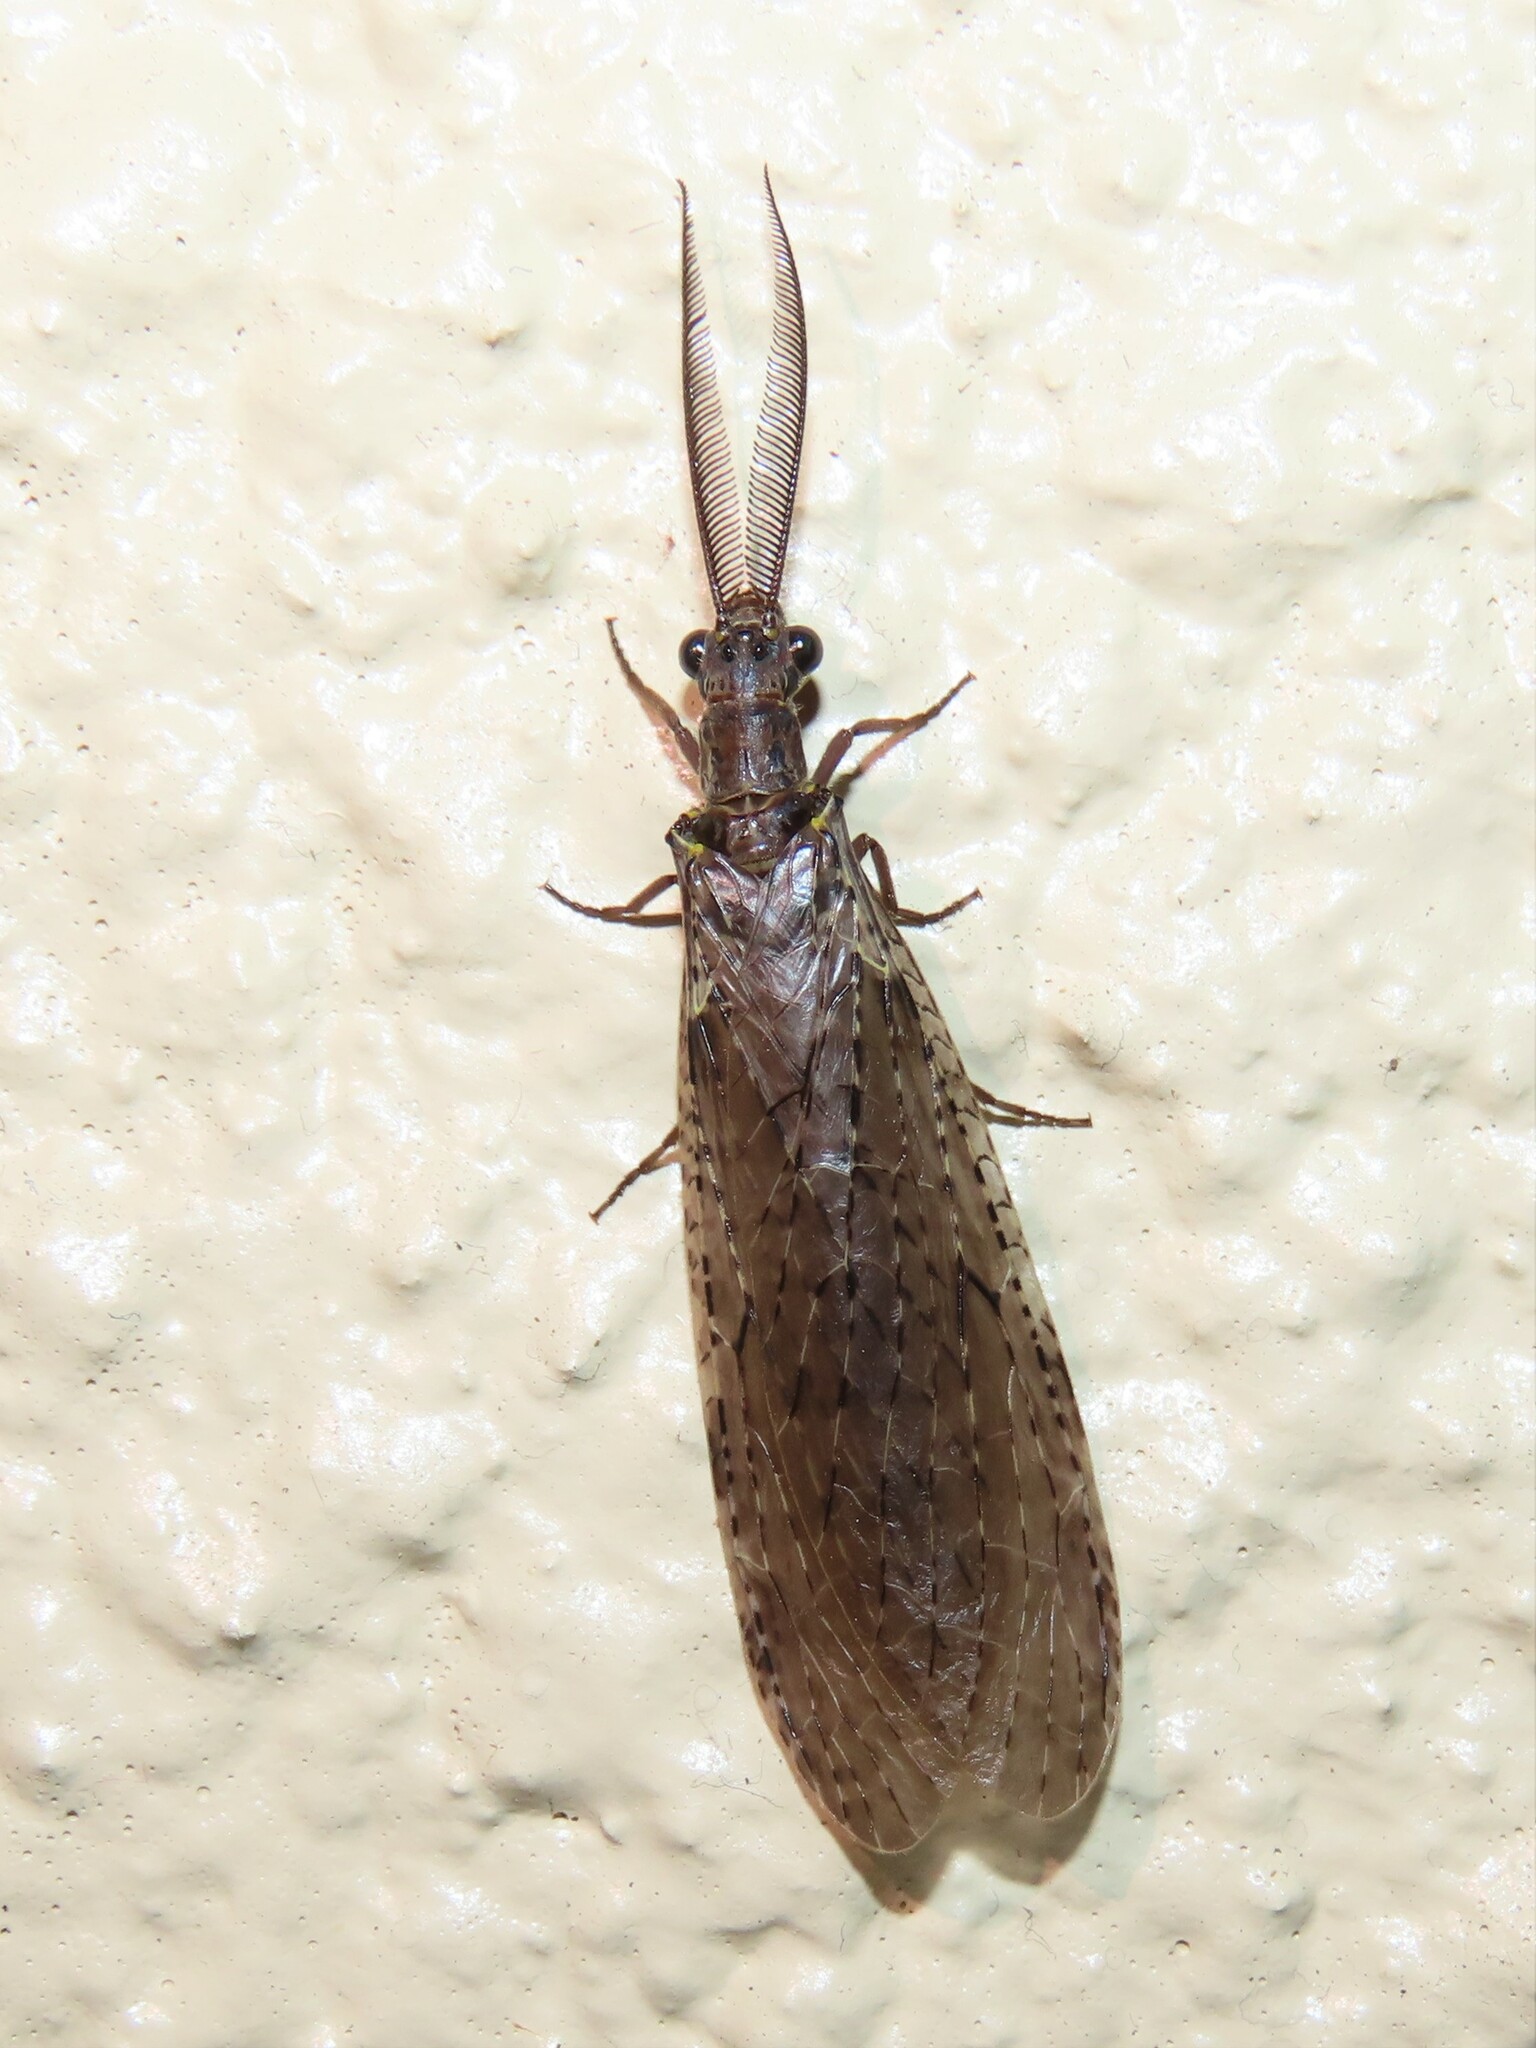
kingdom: Animalia
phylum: Arthropoda
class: Insecta
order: Megaloptera
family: Corydalidae
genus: Chauliodes
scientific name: Chauliodes rastricornis
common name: Spring fishfly
